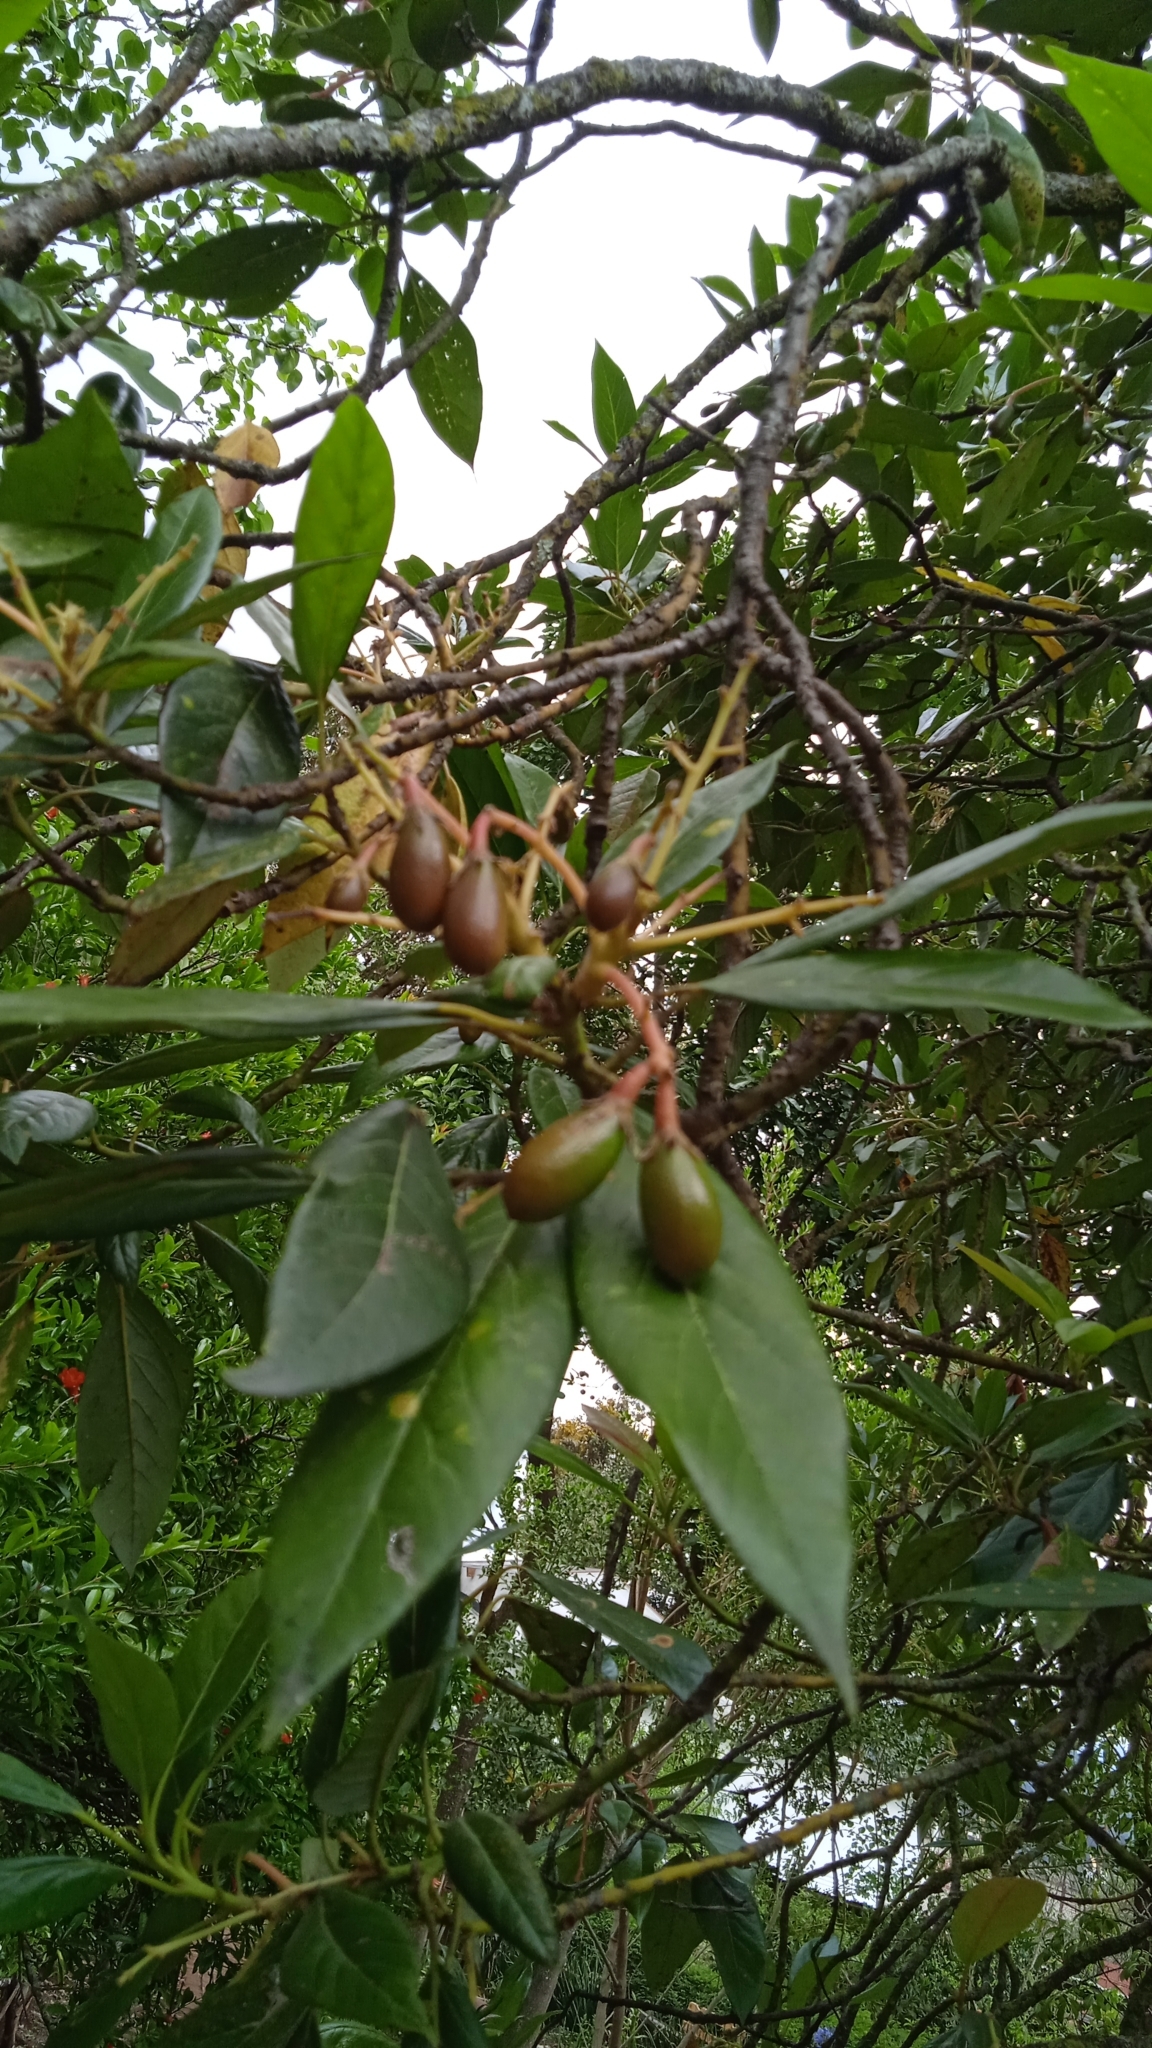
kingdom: Plantae
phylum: Tracheophyta
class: Magnoliopsida
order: Laurales
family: Lauraceae
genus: Persea
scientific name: Persea americana
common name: Avocado
